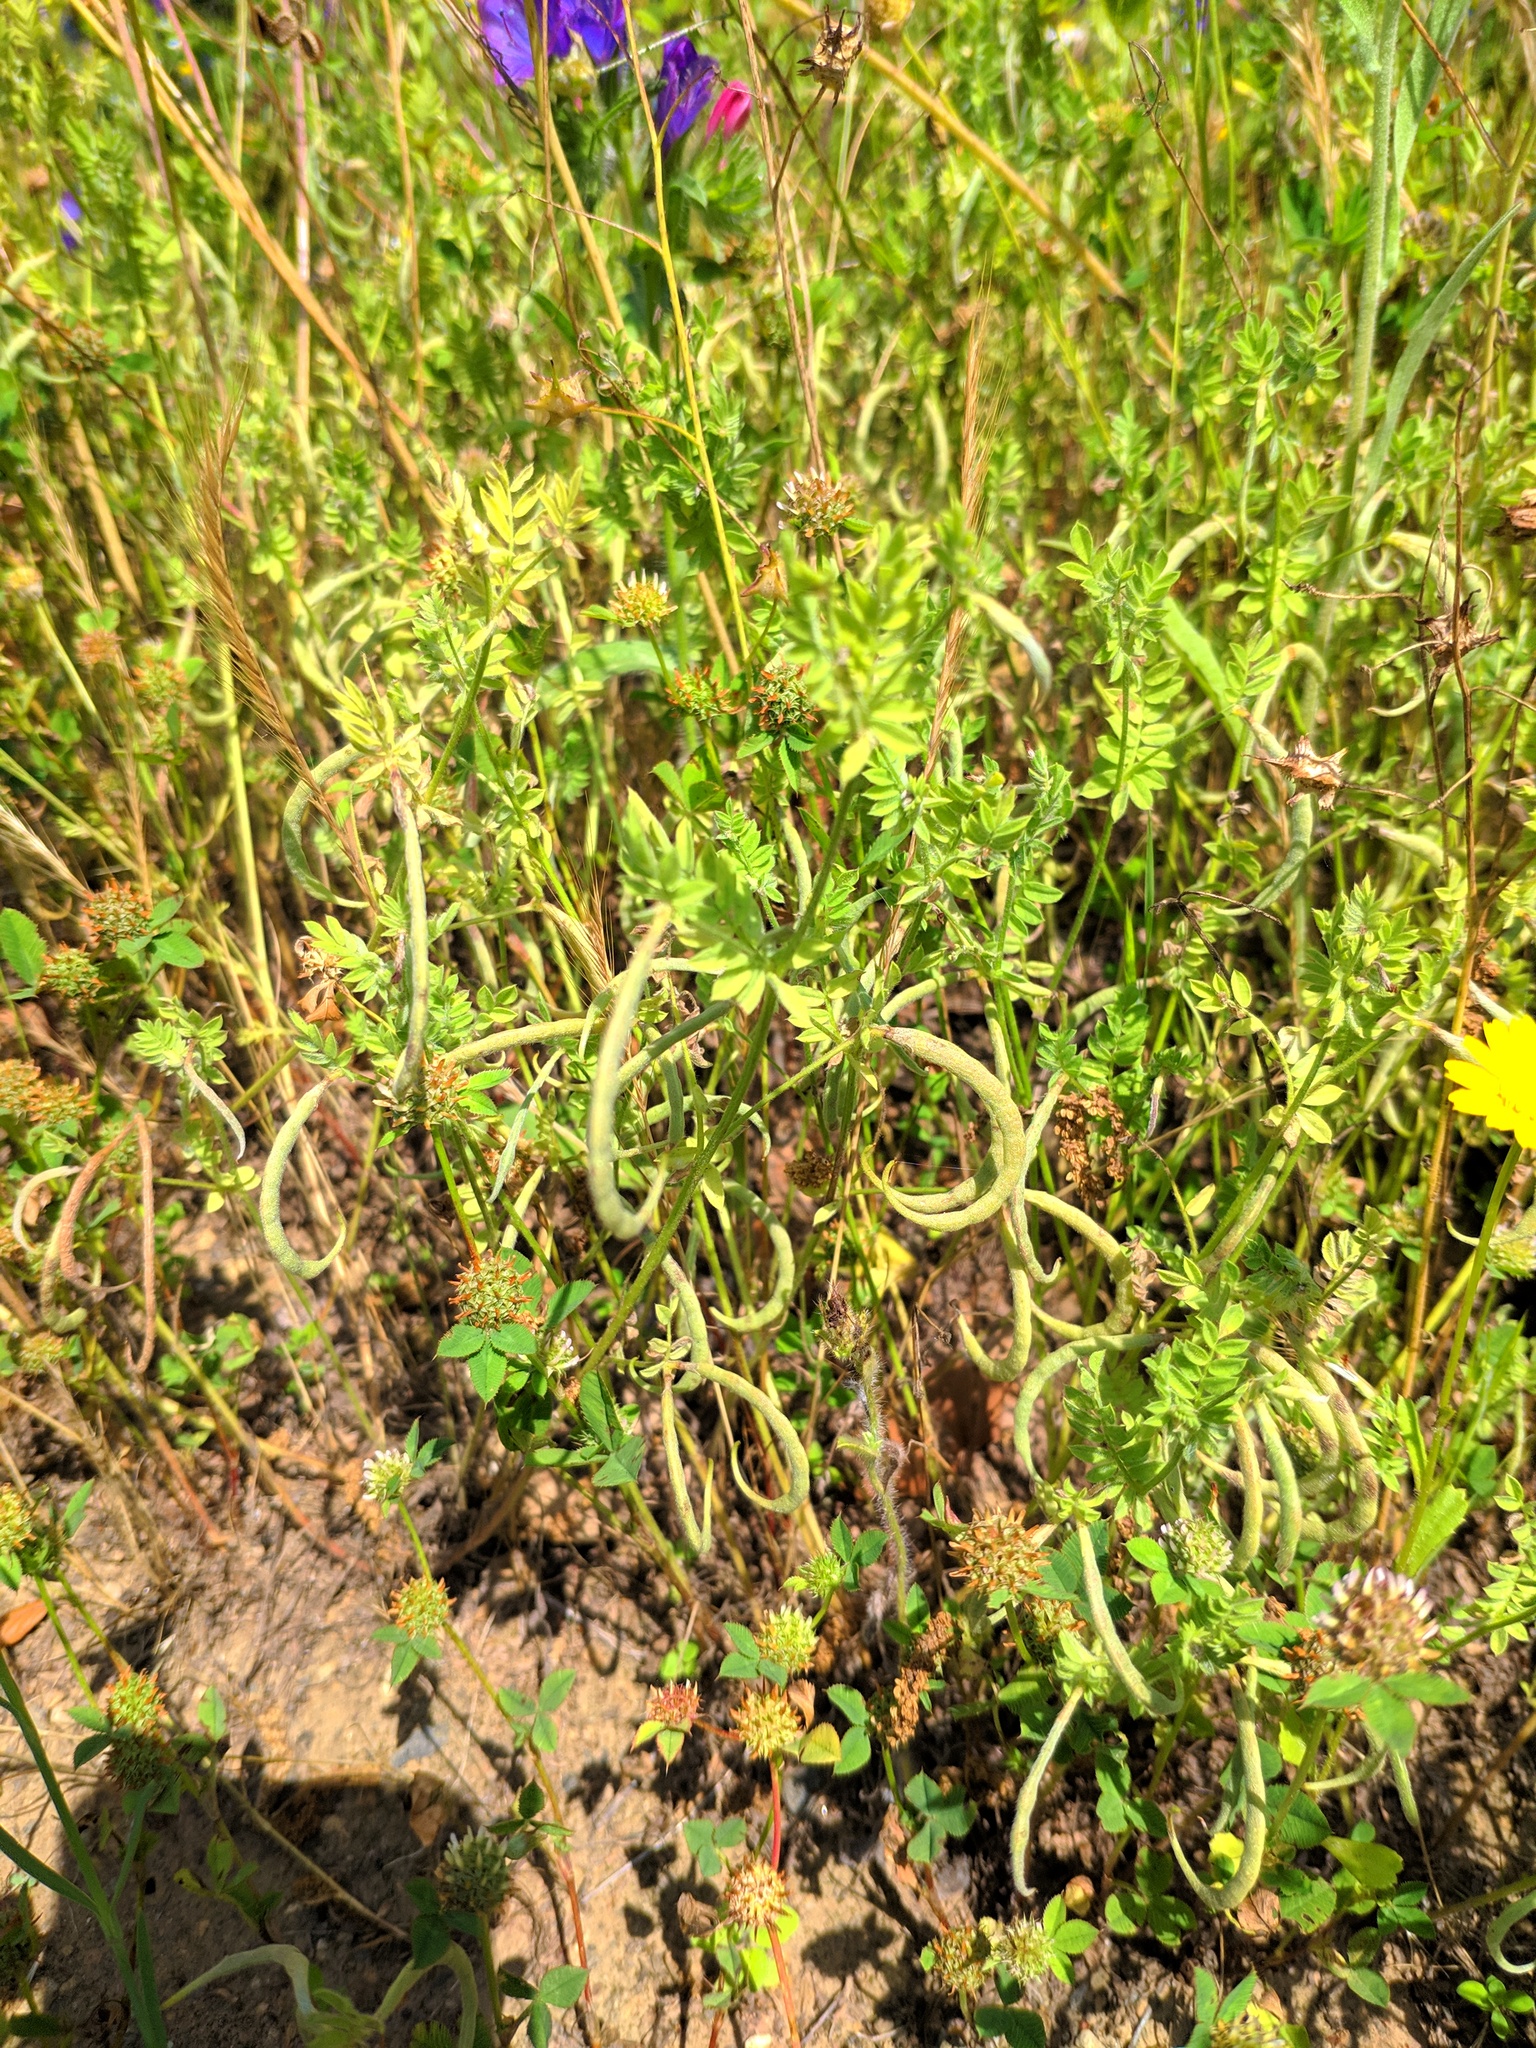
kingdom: Plantae
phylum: Tracheophyta
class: Magnoliopsida
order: Fabales
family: Fabaceae
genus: Ornithopus
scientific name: Ornithopus compressus
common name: Yellow serradella
